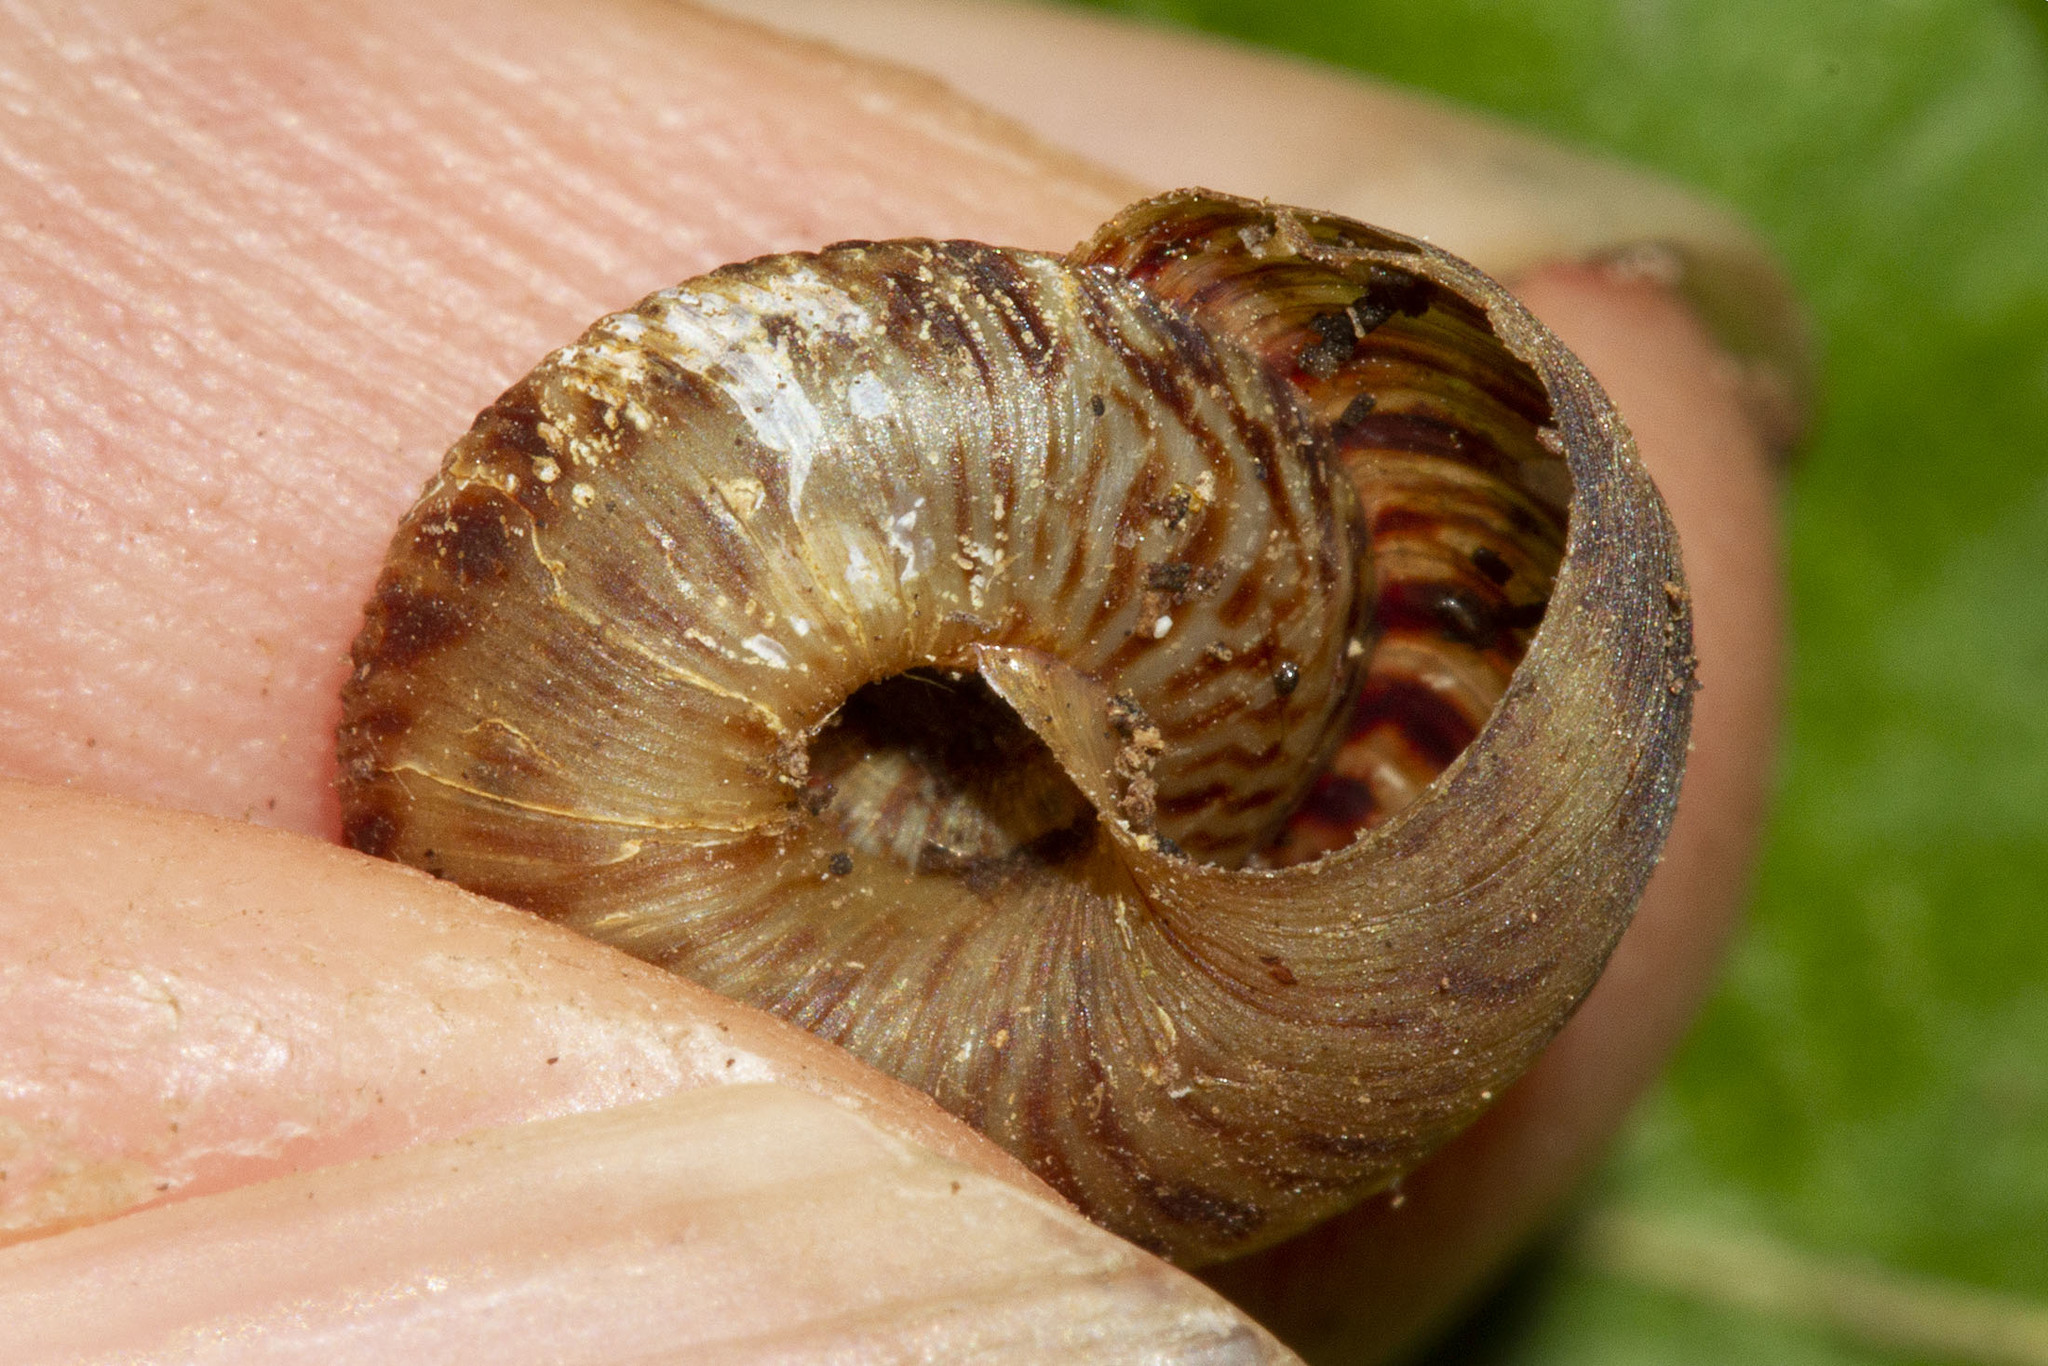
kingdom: Animalia
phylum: Mollusca
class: Gastropoda
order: Stylommatophora
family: Discidae
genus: Anguispira
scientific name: Anguispira alternata
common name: Flamed tigersnail
